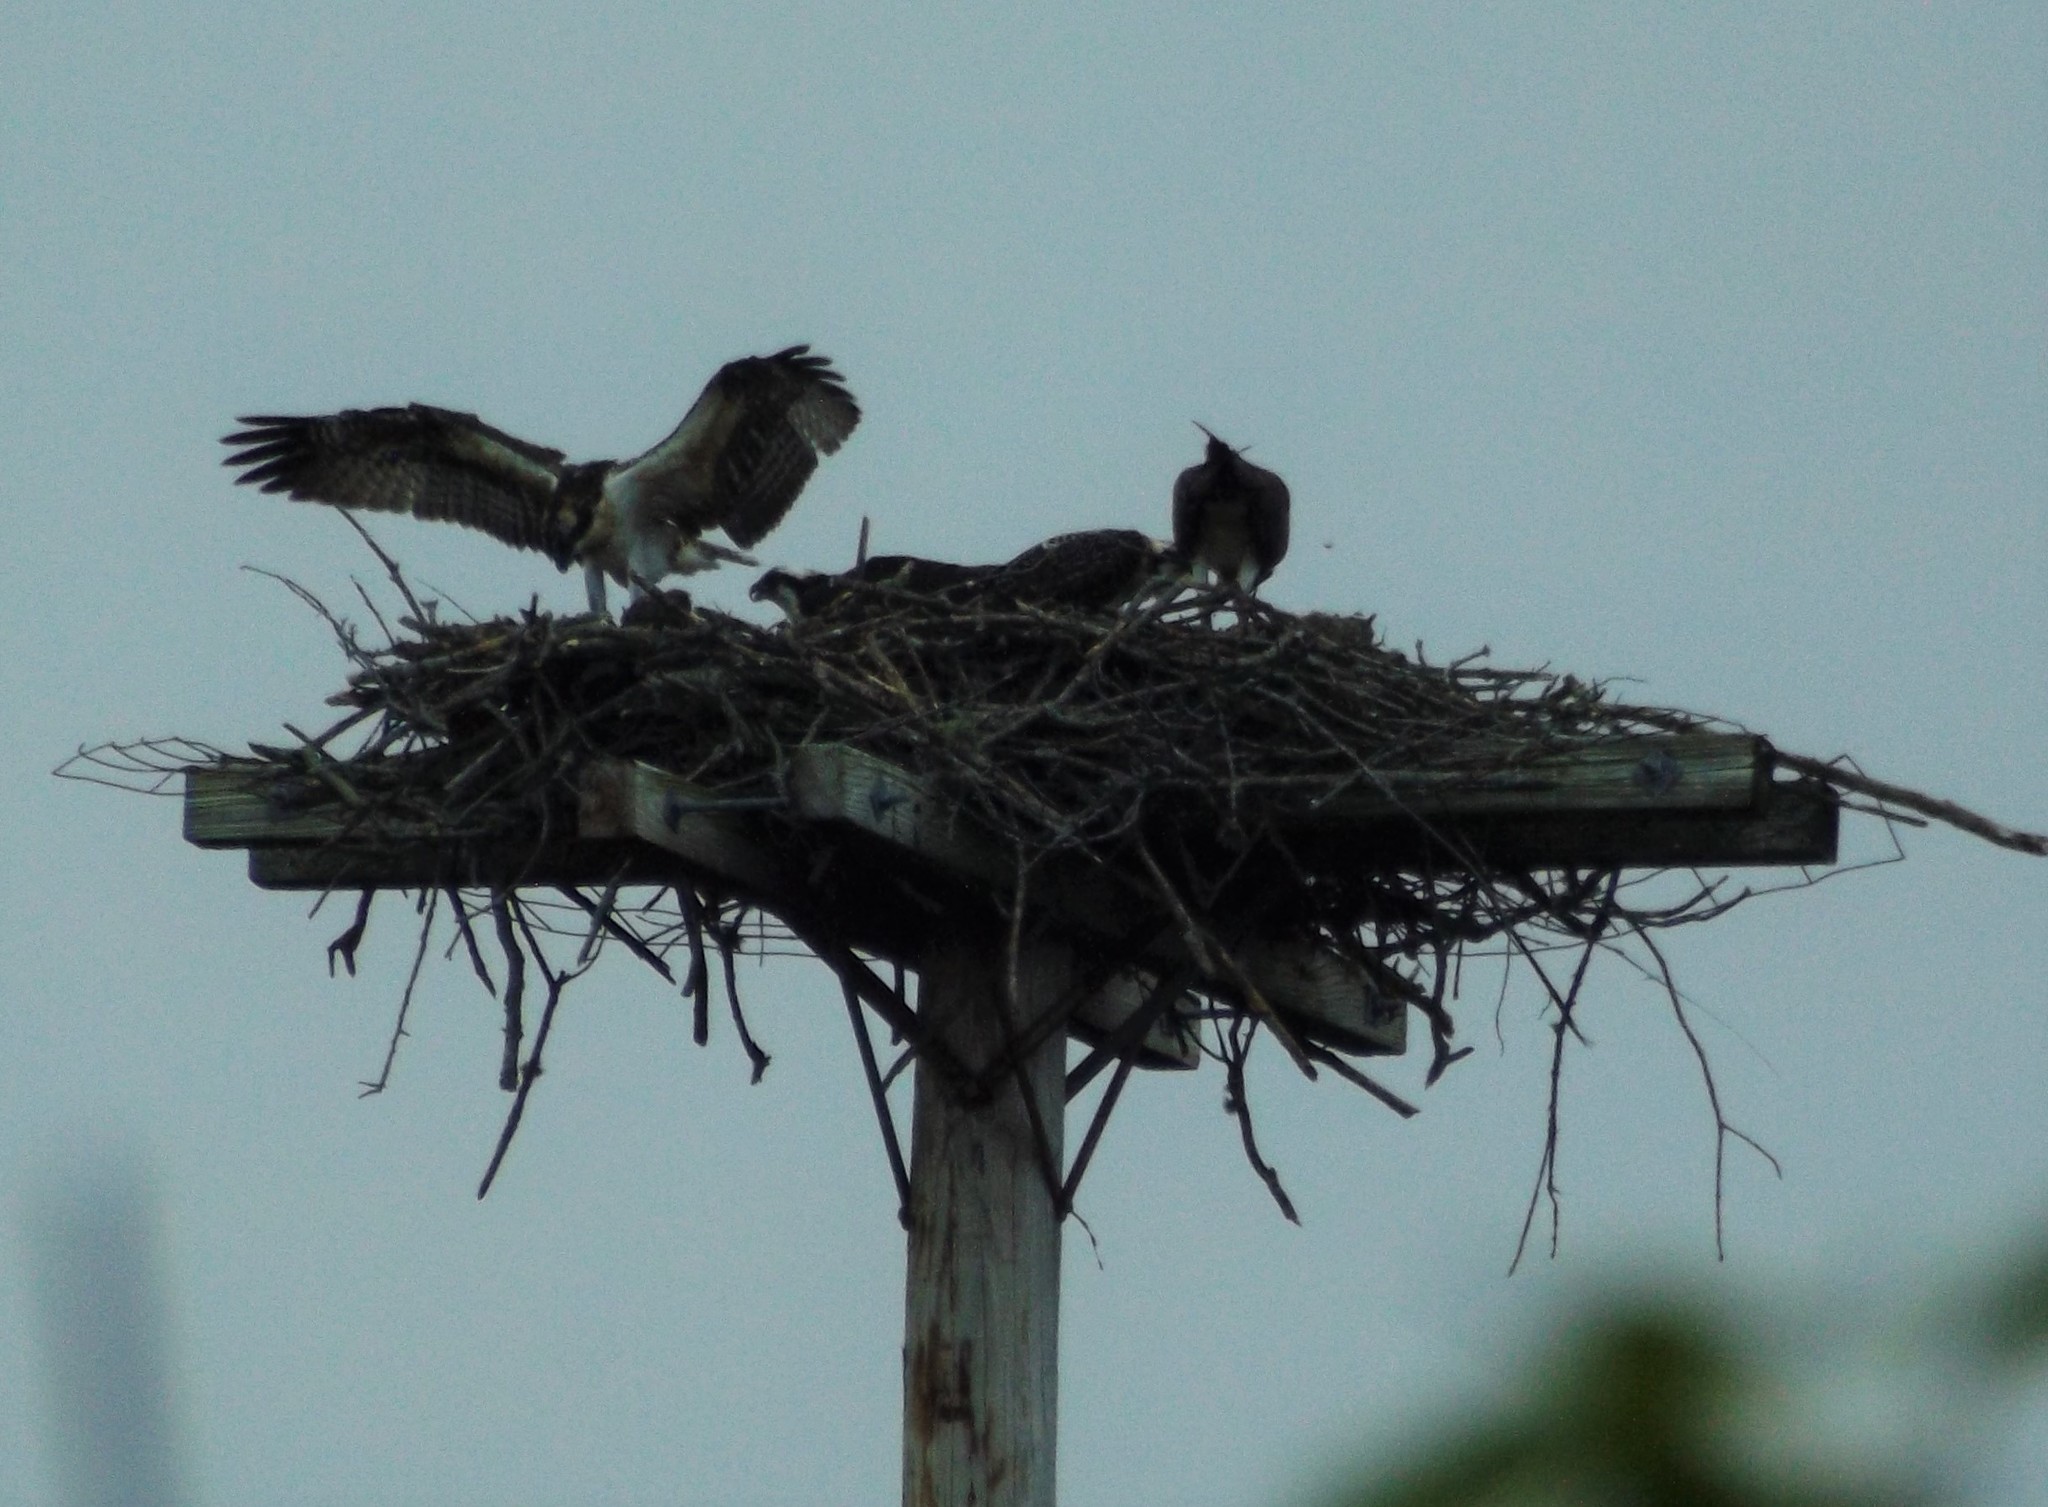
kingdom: Animalia
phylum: Chordata
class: Aves
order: Accipitriformes
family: Pandionidae
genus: Pandion
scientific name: Pandion haliaetus
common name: Osprey
